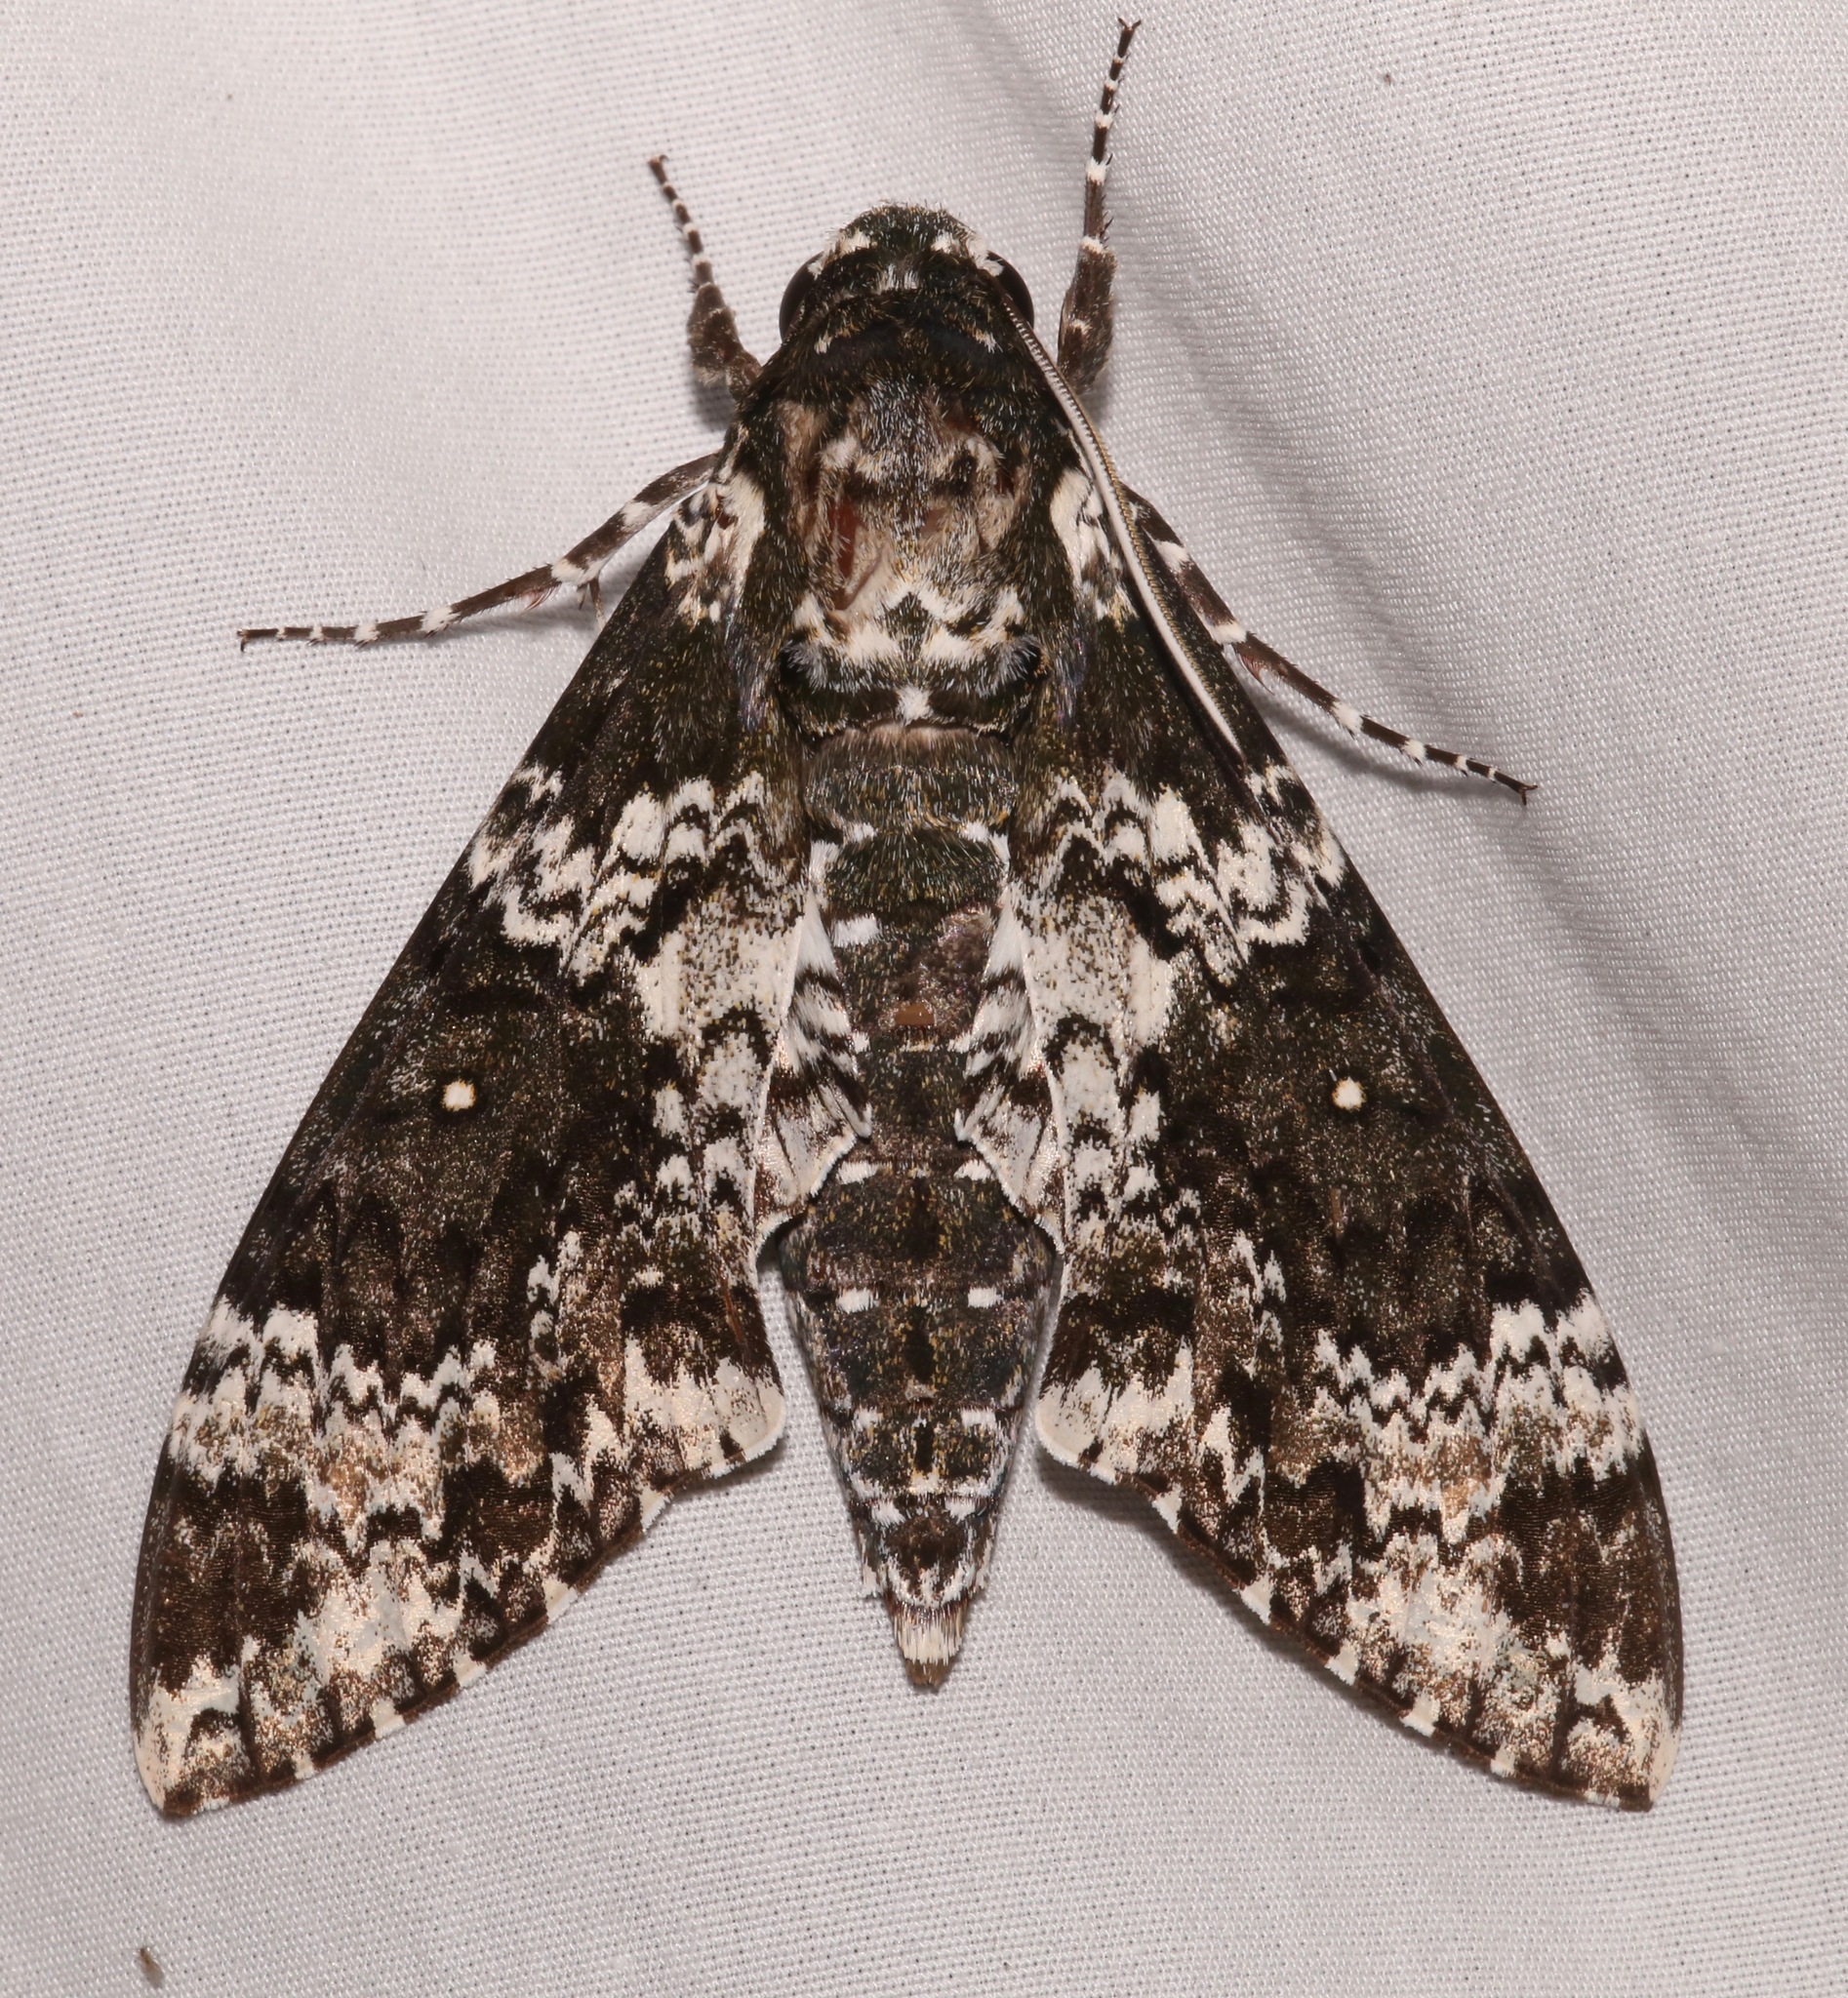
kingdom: Animalia
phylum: Arthropoda
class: Insecta
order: Lepidoptera
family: Sphingidae
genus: Manduca
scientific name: Manduca rustica
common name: Rustic sphinx
